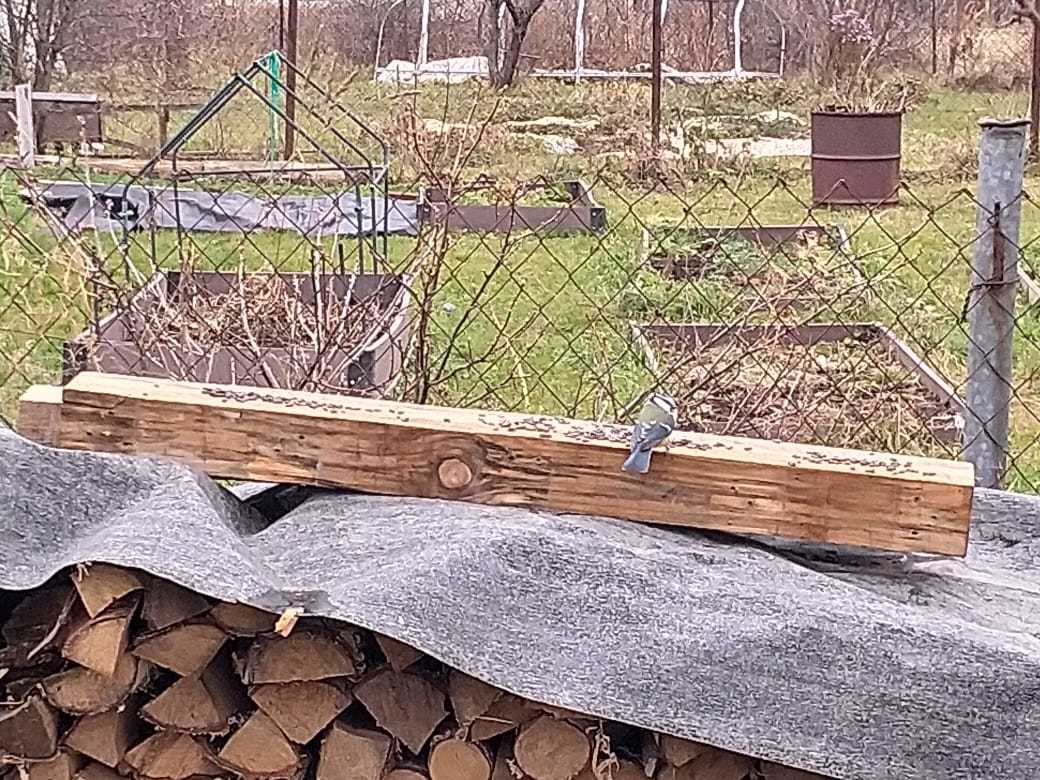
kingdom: Animalia
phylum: Chordata
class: Aves
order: Passeriformes
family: Paridae
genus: Parus
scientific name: Parus major
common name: Great tit
